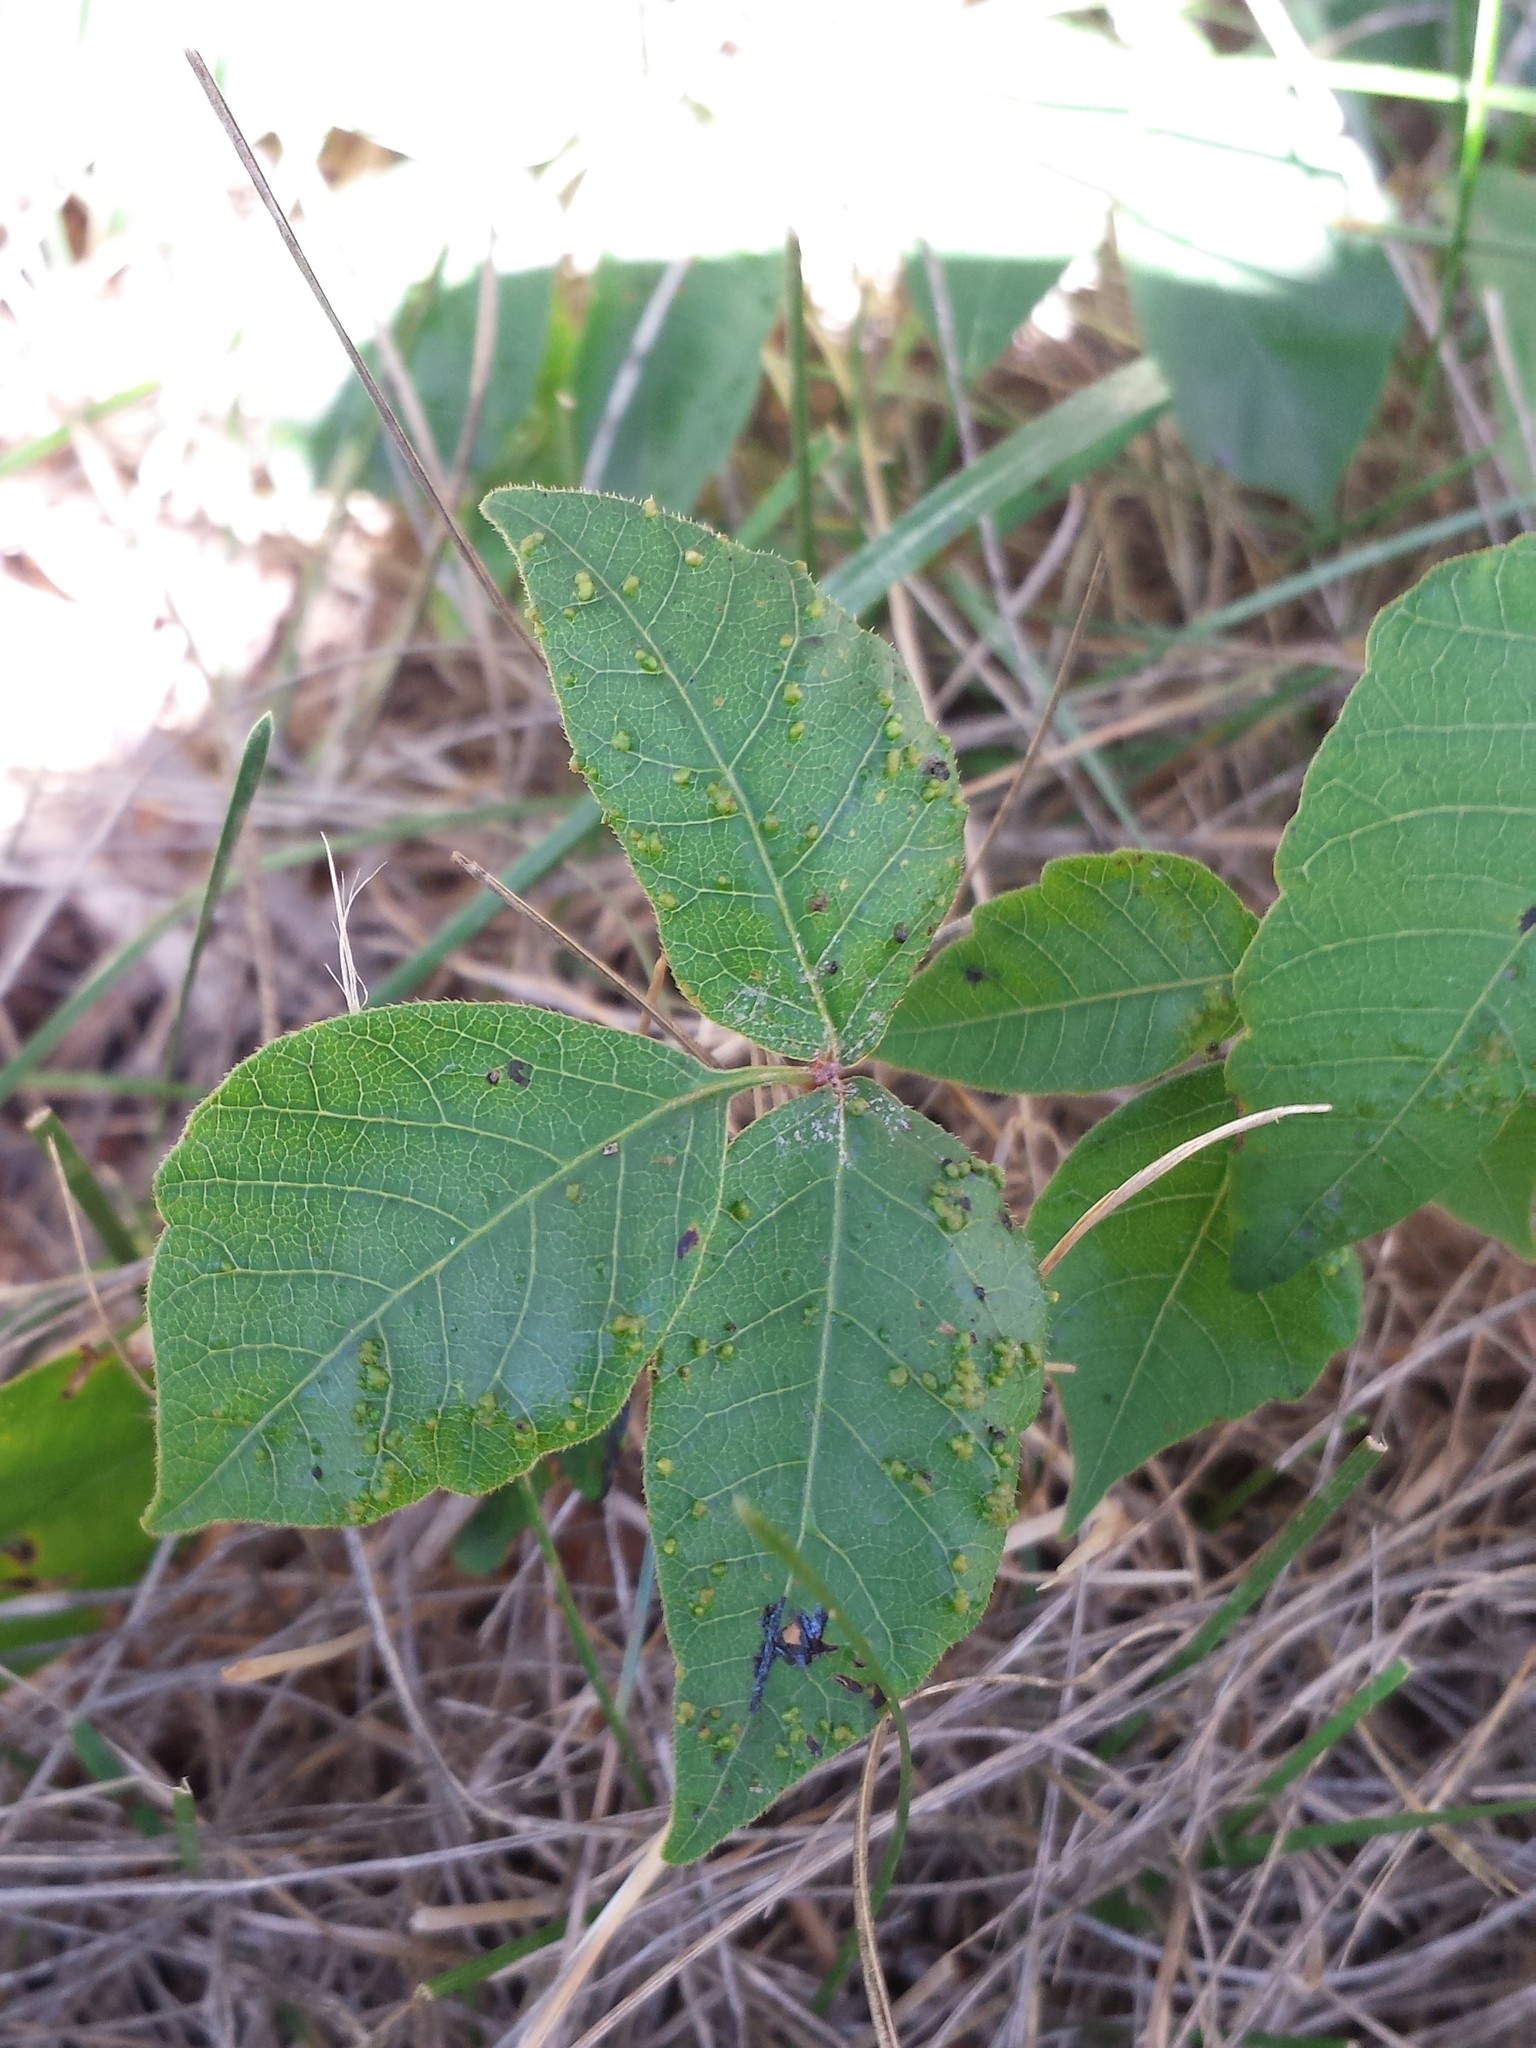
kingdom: Animalia
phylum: Arthropoda
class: Arachnida
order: Trombidiformes
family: Eriophyidae
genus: Aculops
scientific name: Aculops
